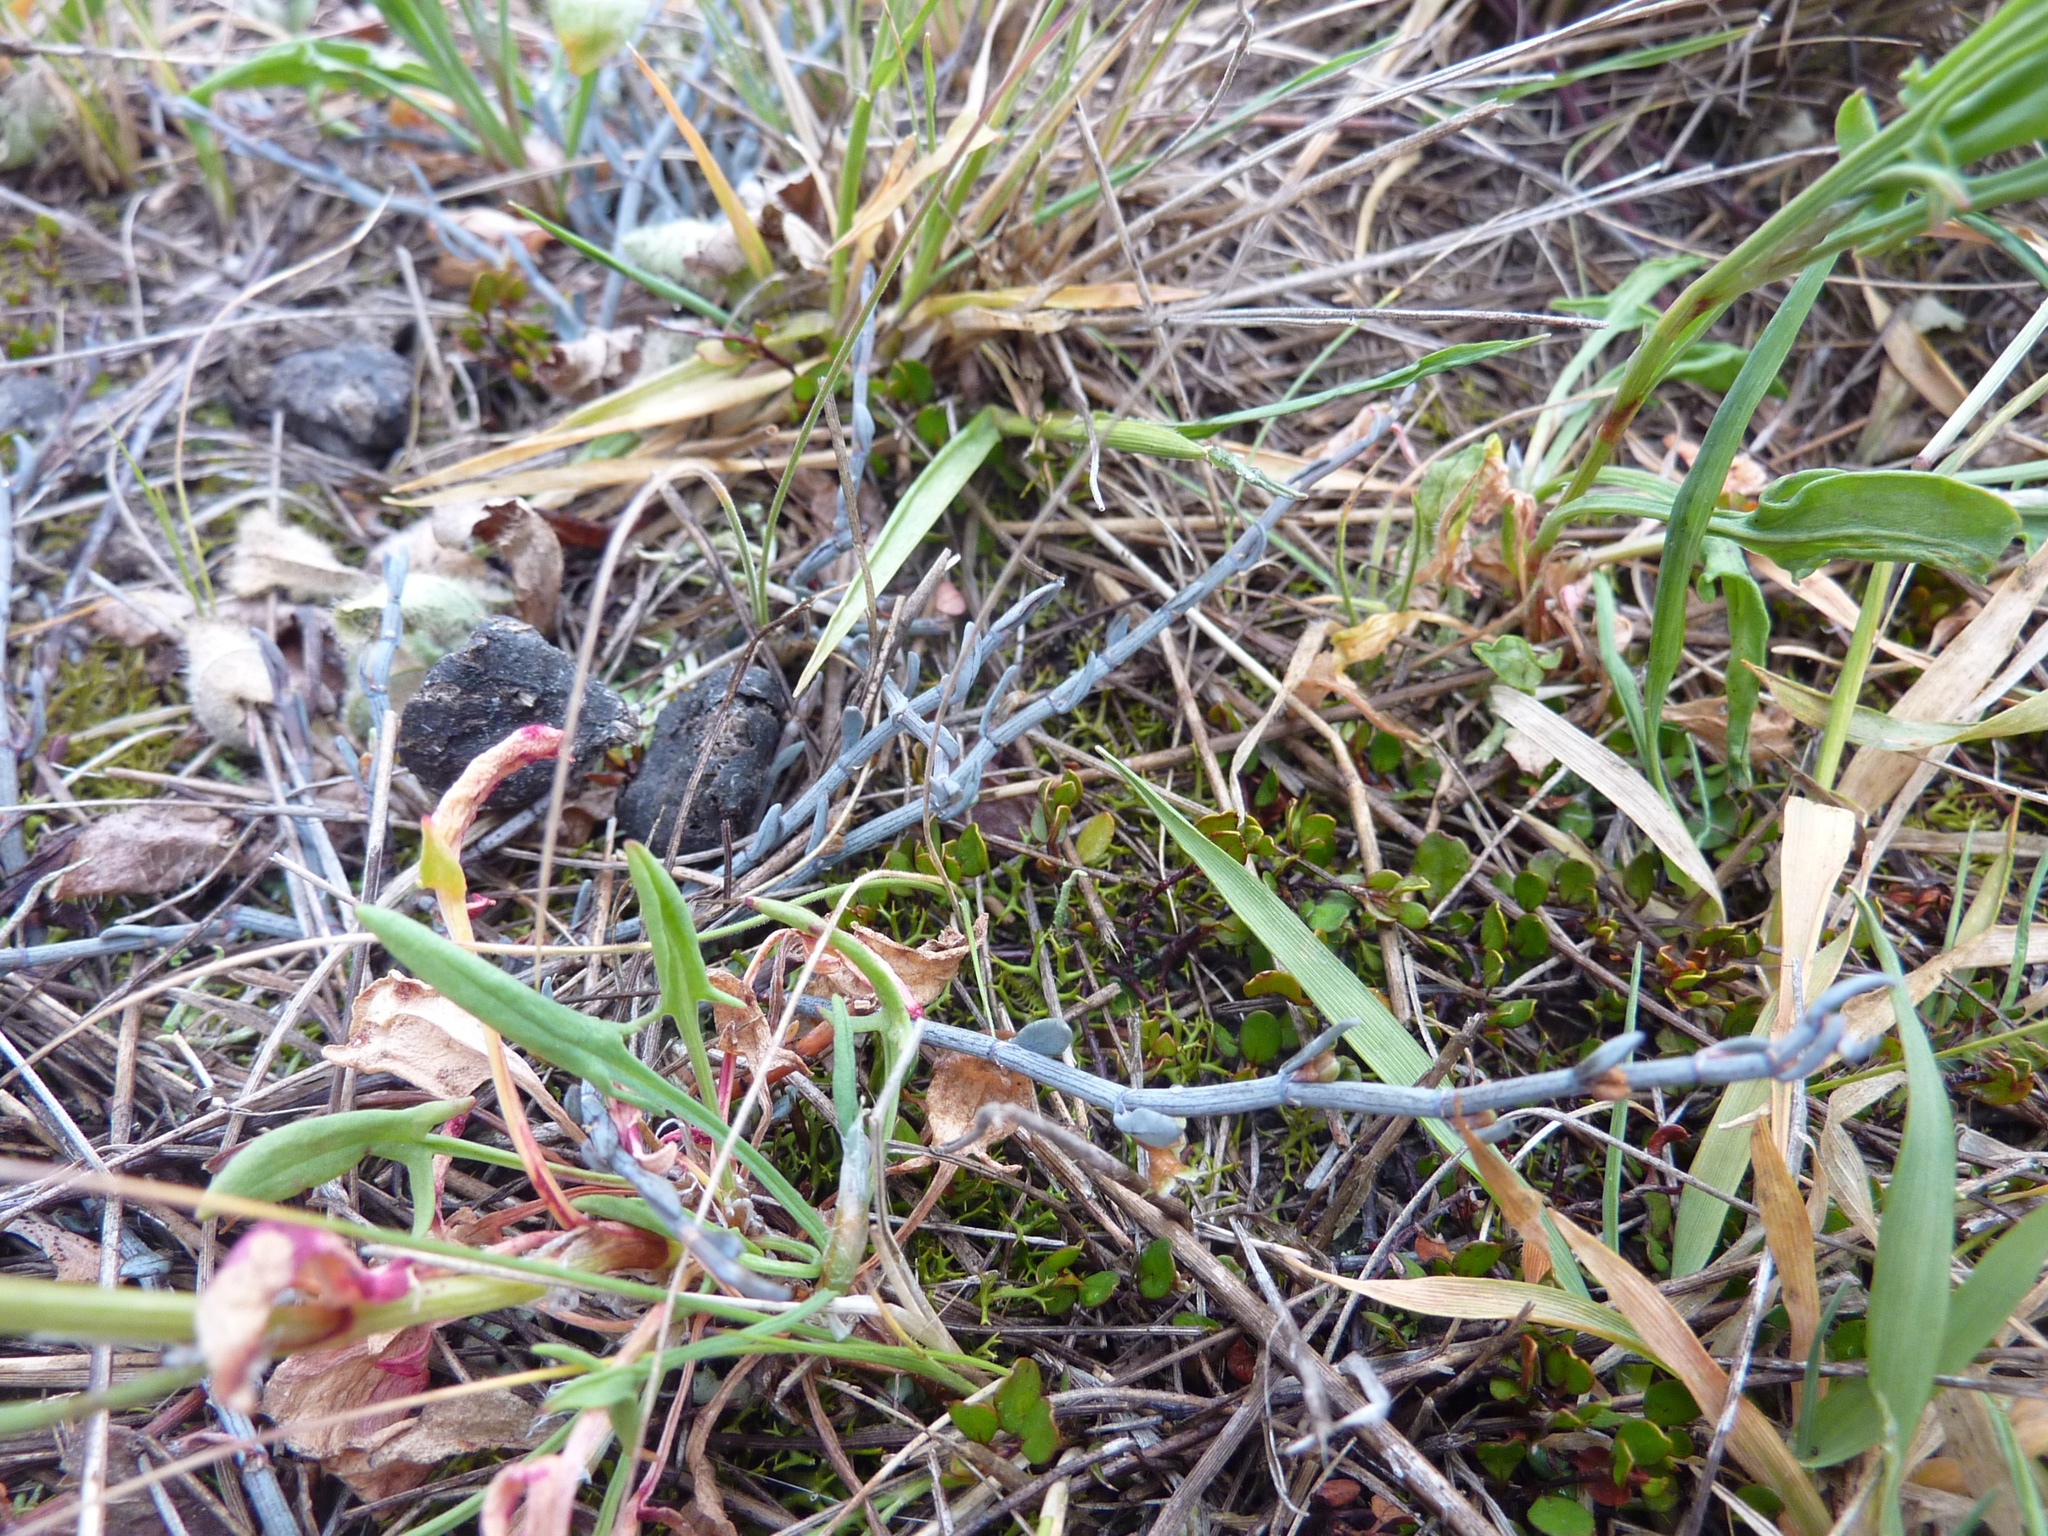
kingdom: Plantae
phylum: Tracheophyta
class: Magnoliopsida
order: Caryophyllales
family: Polygonaceae
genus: Muehlenbeckia
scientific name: Muehlenbeckia ephedroides
